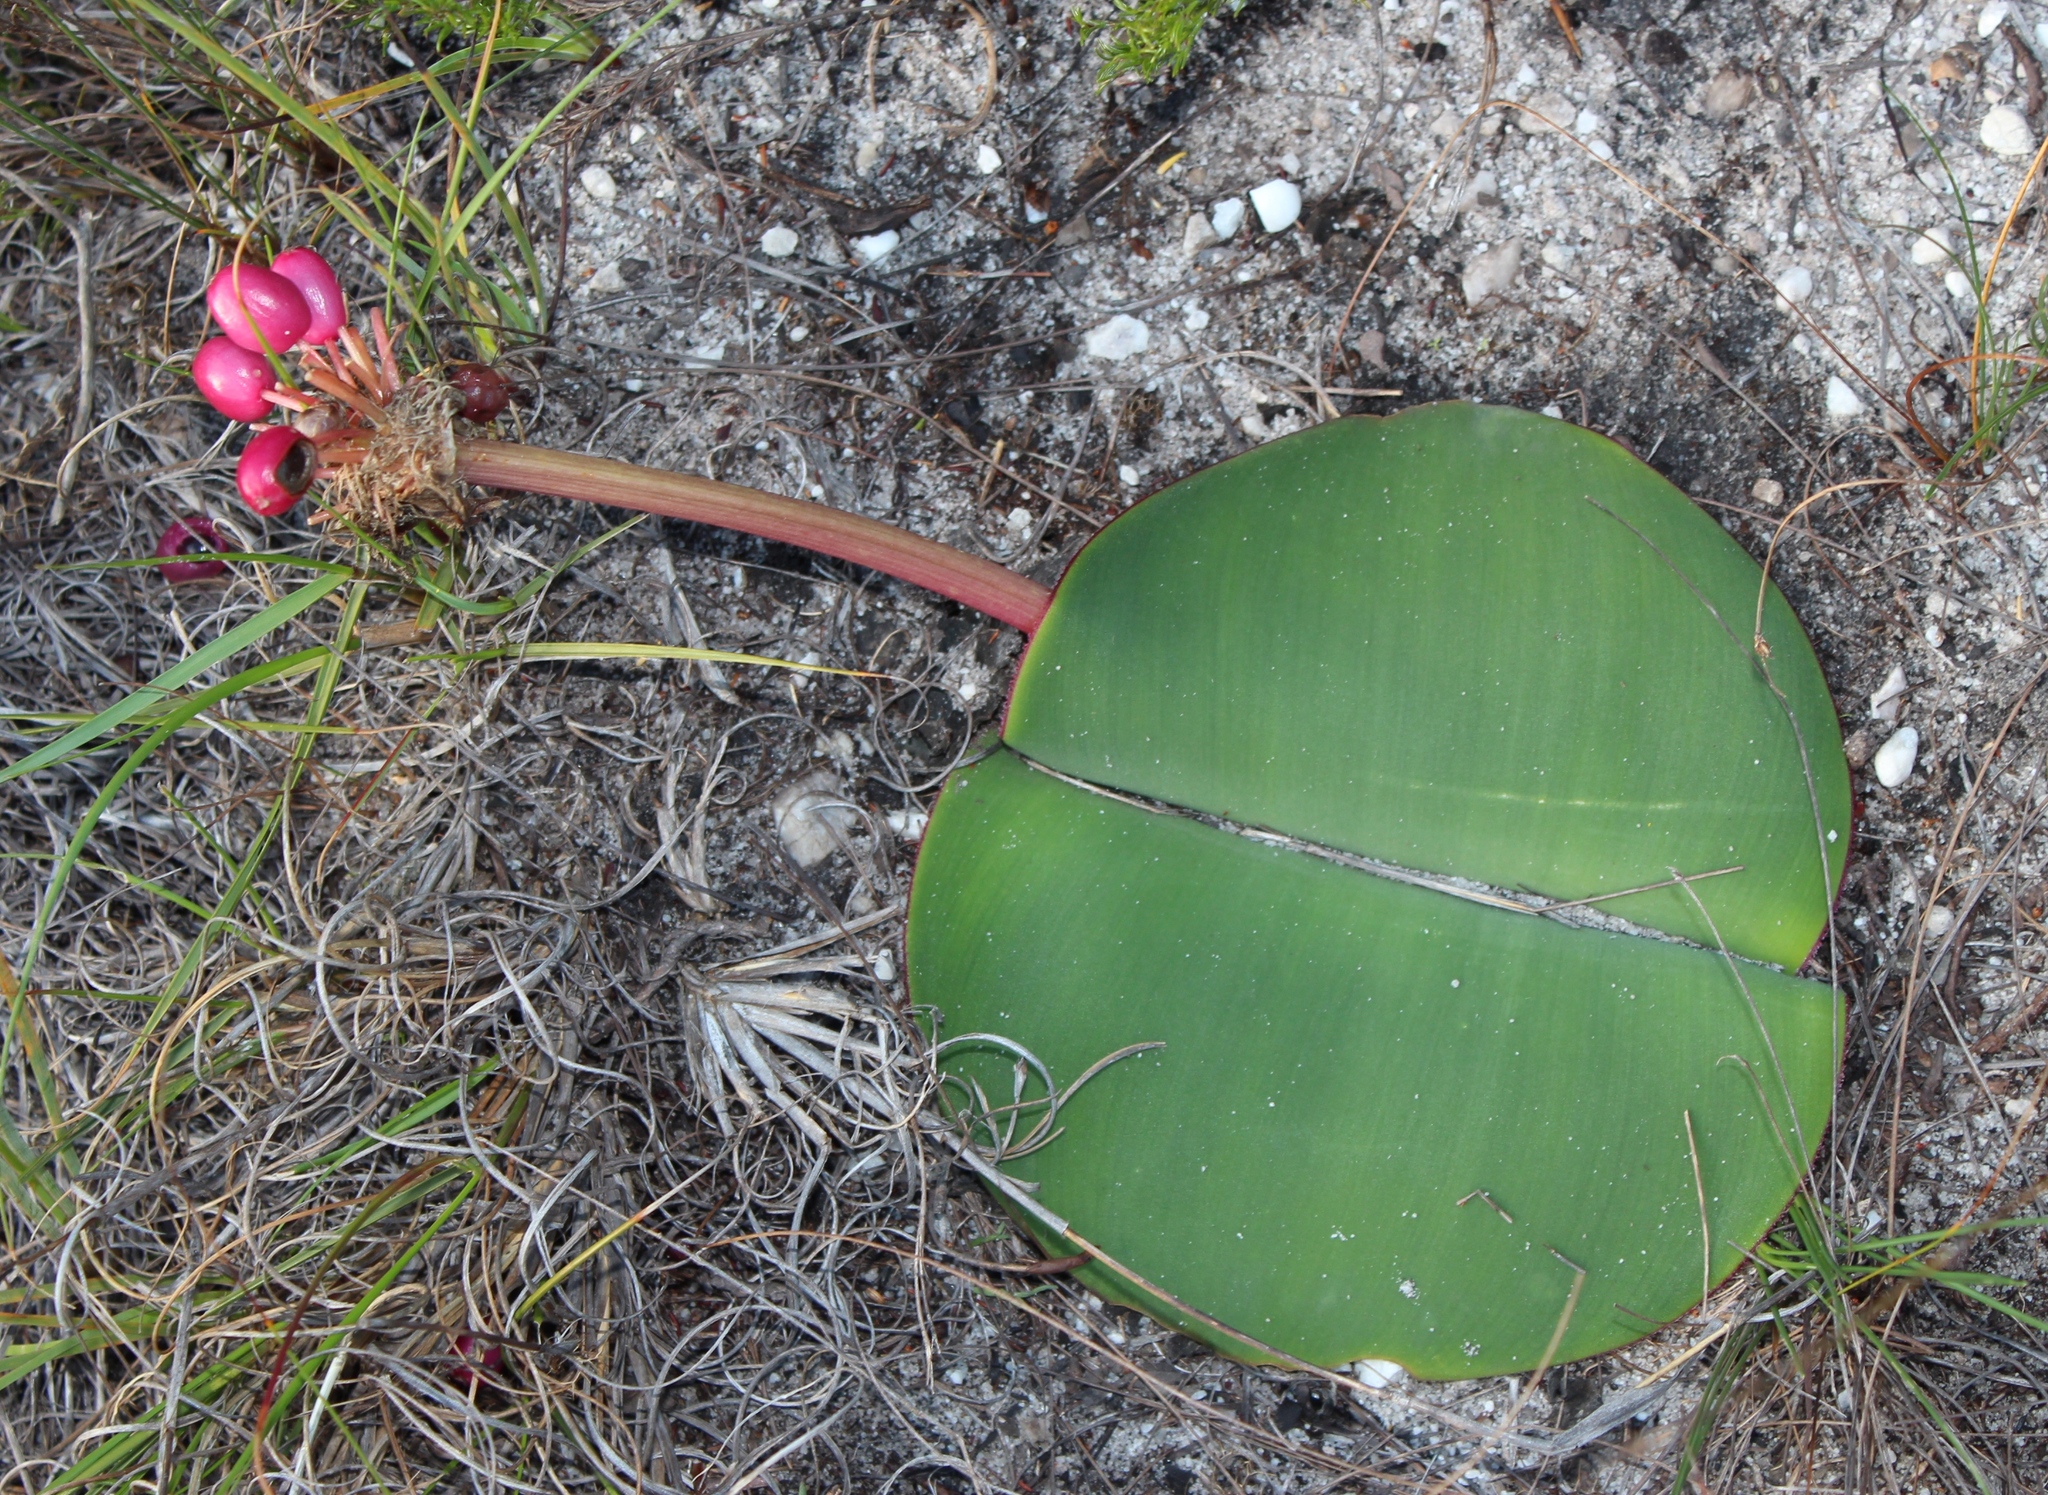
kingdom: Plantae
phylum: Tracheophyta
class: Liliopsida
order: Asparagales
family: Amaryllidaceae
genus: Haemanthus
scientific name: Haemanthus sanguineus
